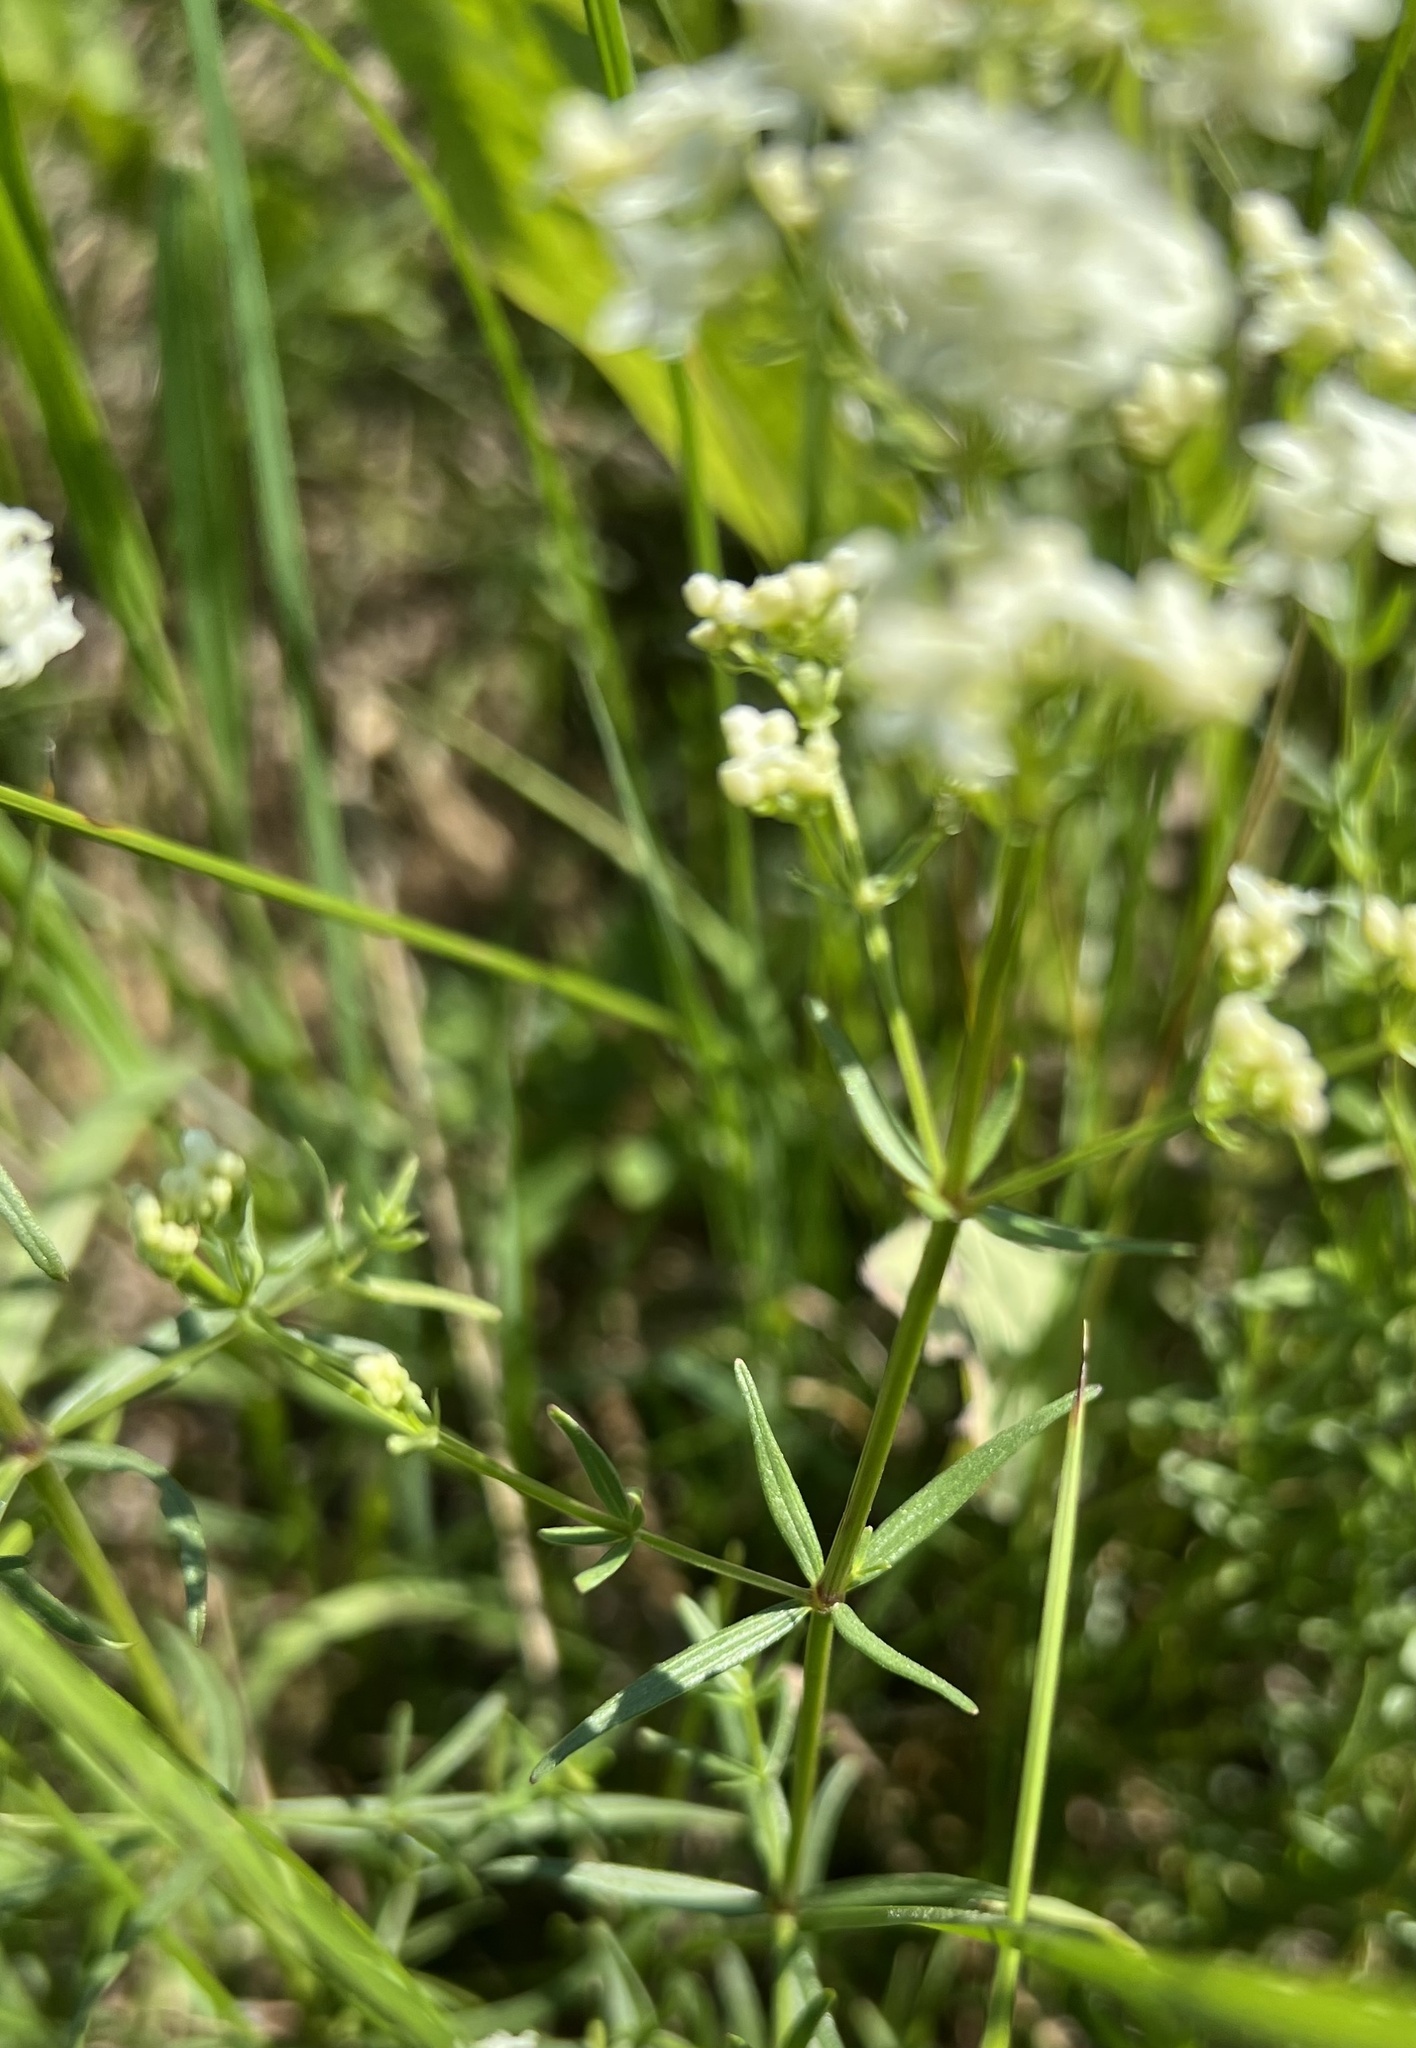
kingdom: Plantae
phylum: Tracheophyta
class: Magnoliopsida
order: Gentianales
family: Rubiaceae
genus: Galium
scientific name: Galium boreale
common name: Northern bedstraw
